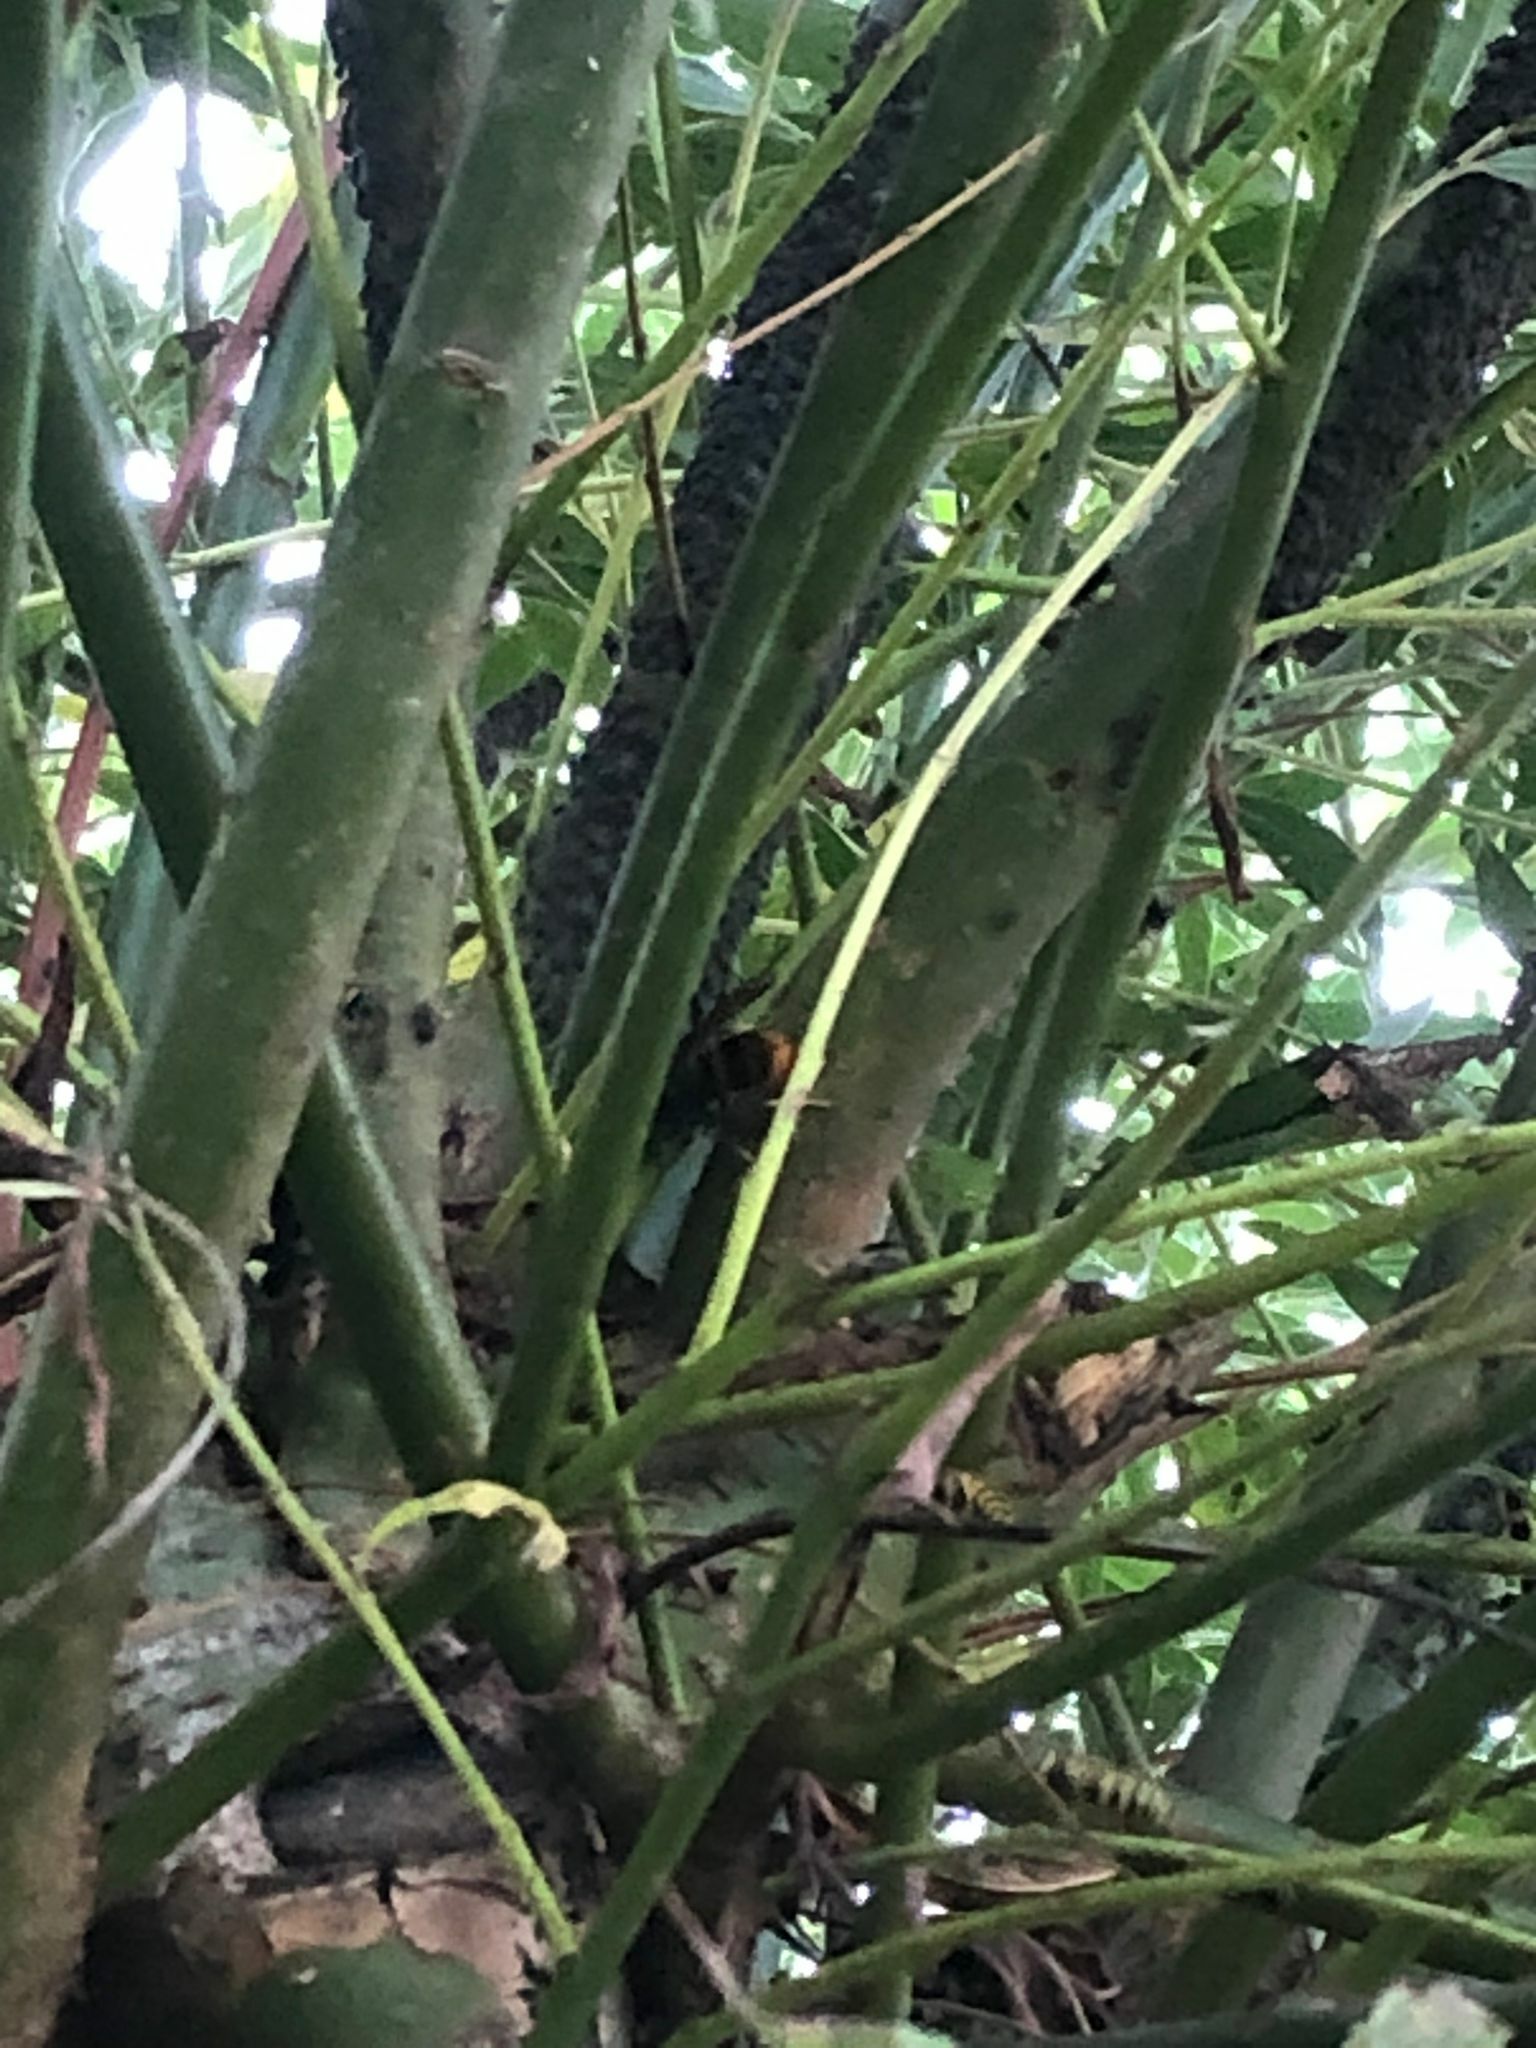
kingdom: Animalia
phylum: Arthropoda
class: Insecta
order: Hymenoptera
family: Vespidae
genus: Vespa
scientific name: Vespa velutina
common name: Asian hornet
